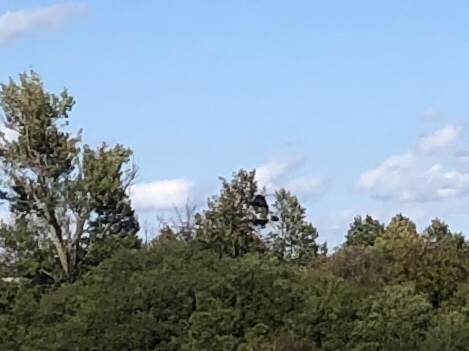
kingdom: Animalia
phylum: Chordata
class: Aves
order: Accipitriformes
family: Accipitridae
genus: Buteo
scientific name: Buteo buteo
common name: Common buzzard
